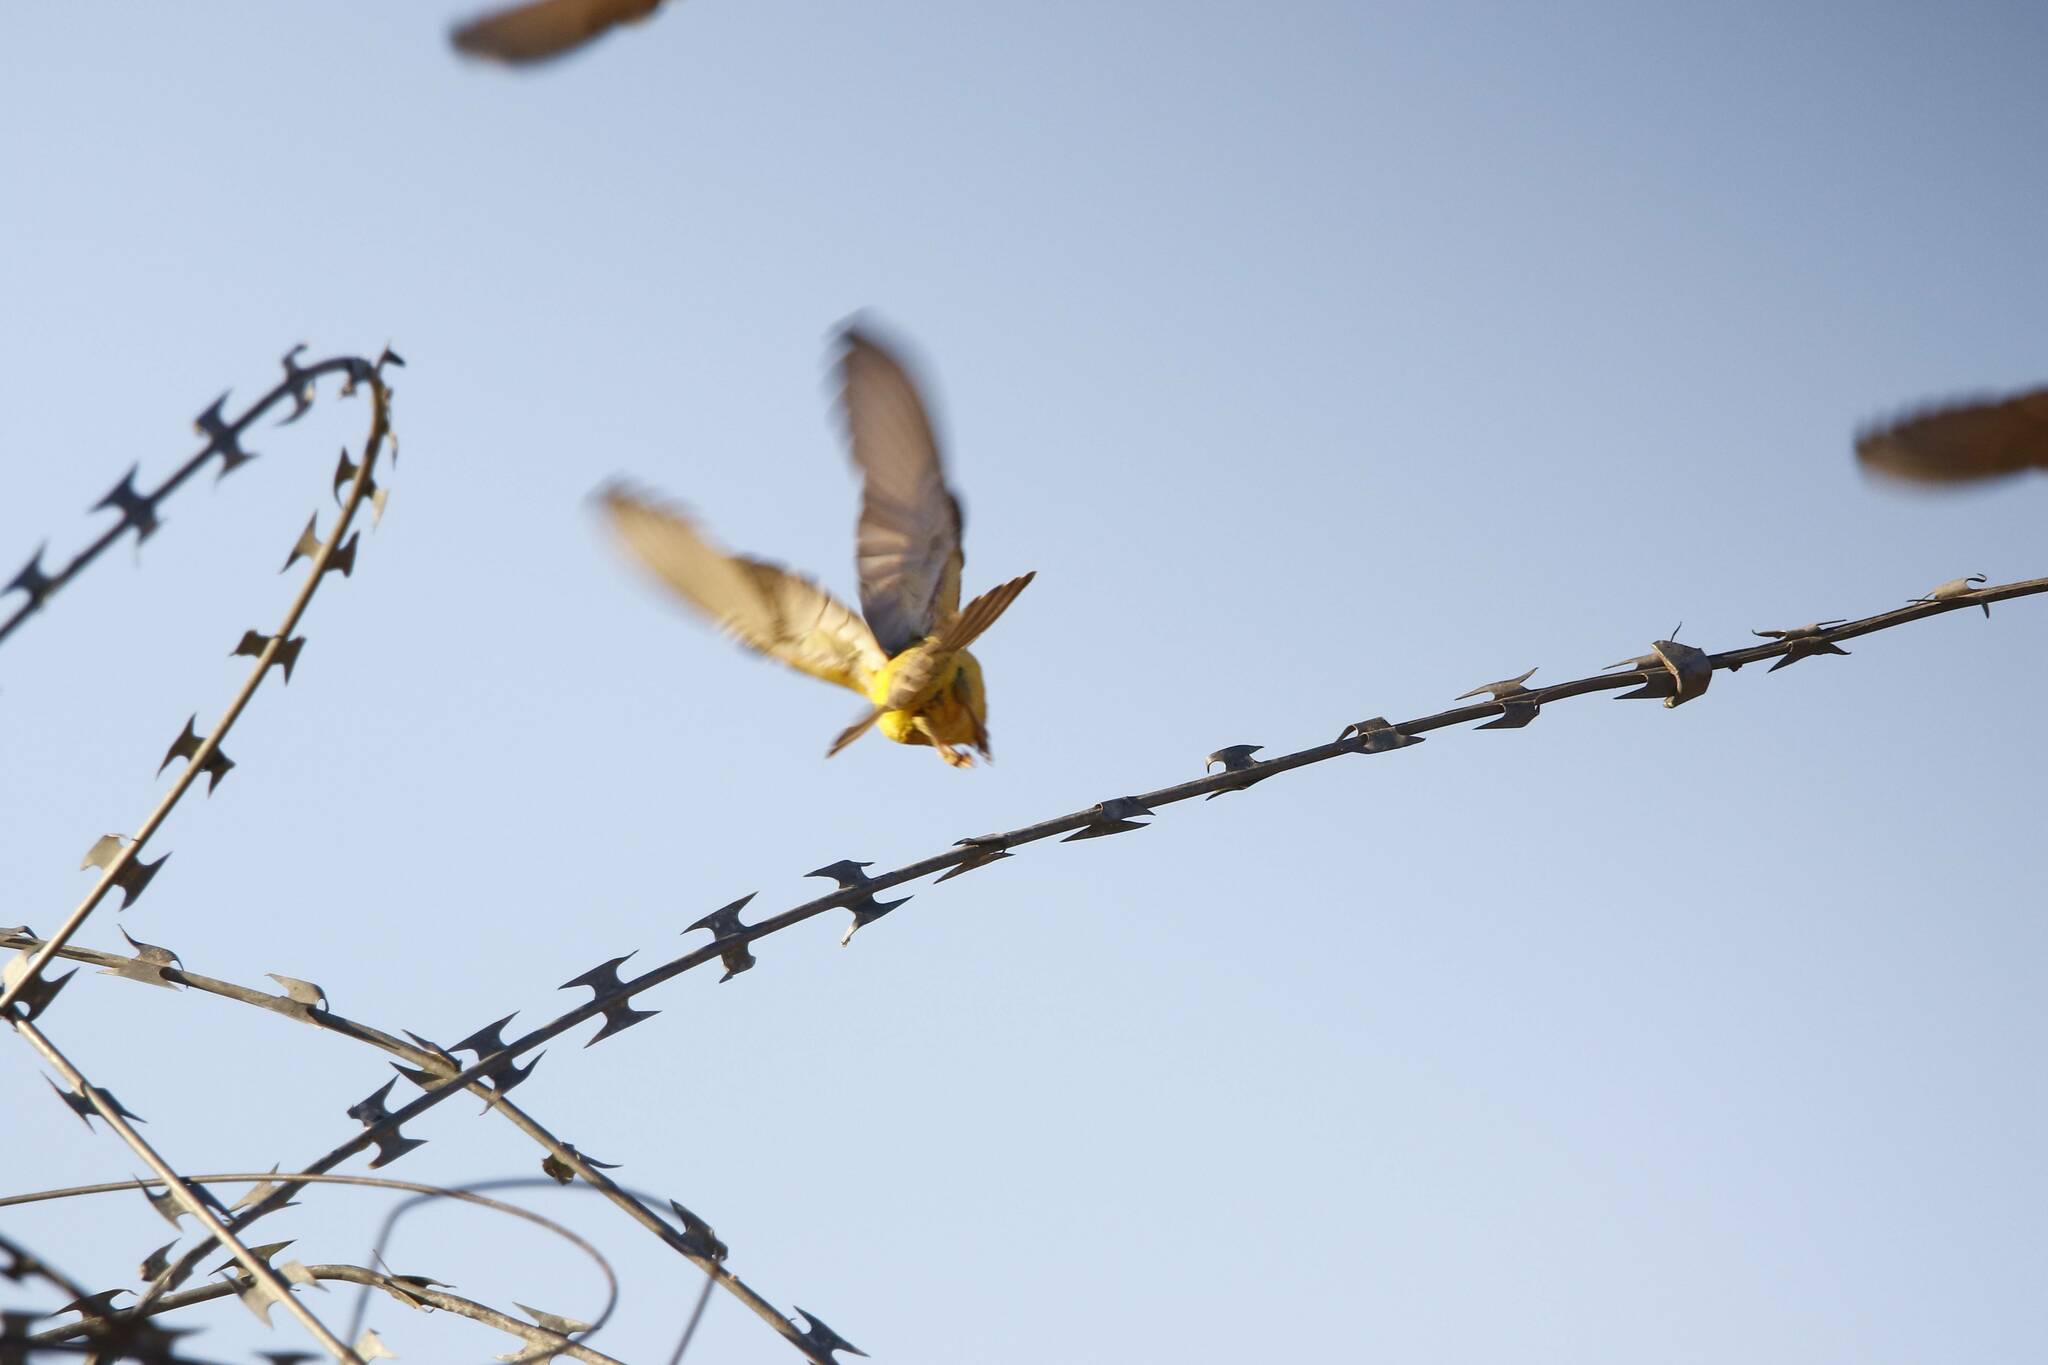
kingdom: Animalia
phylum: Chordata
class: Aves
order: Passeriformes
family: Passeridae
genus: Passer
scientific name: Passer luteus
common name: Sudan golden sparrow
